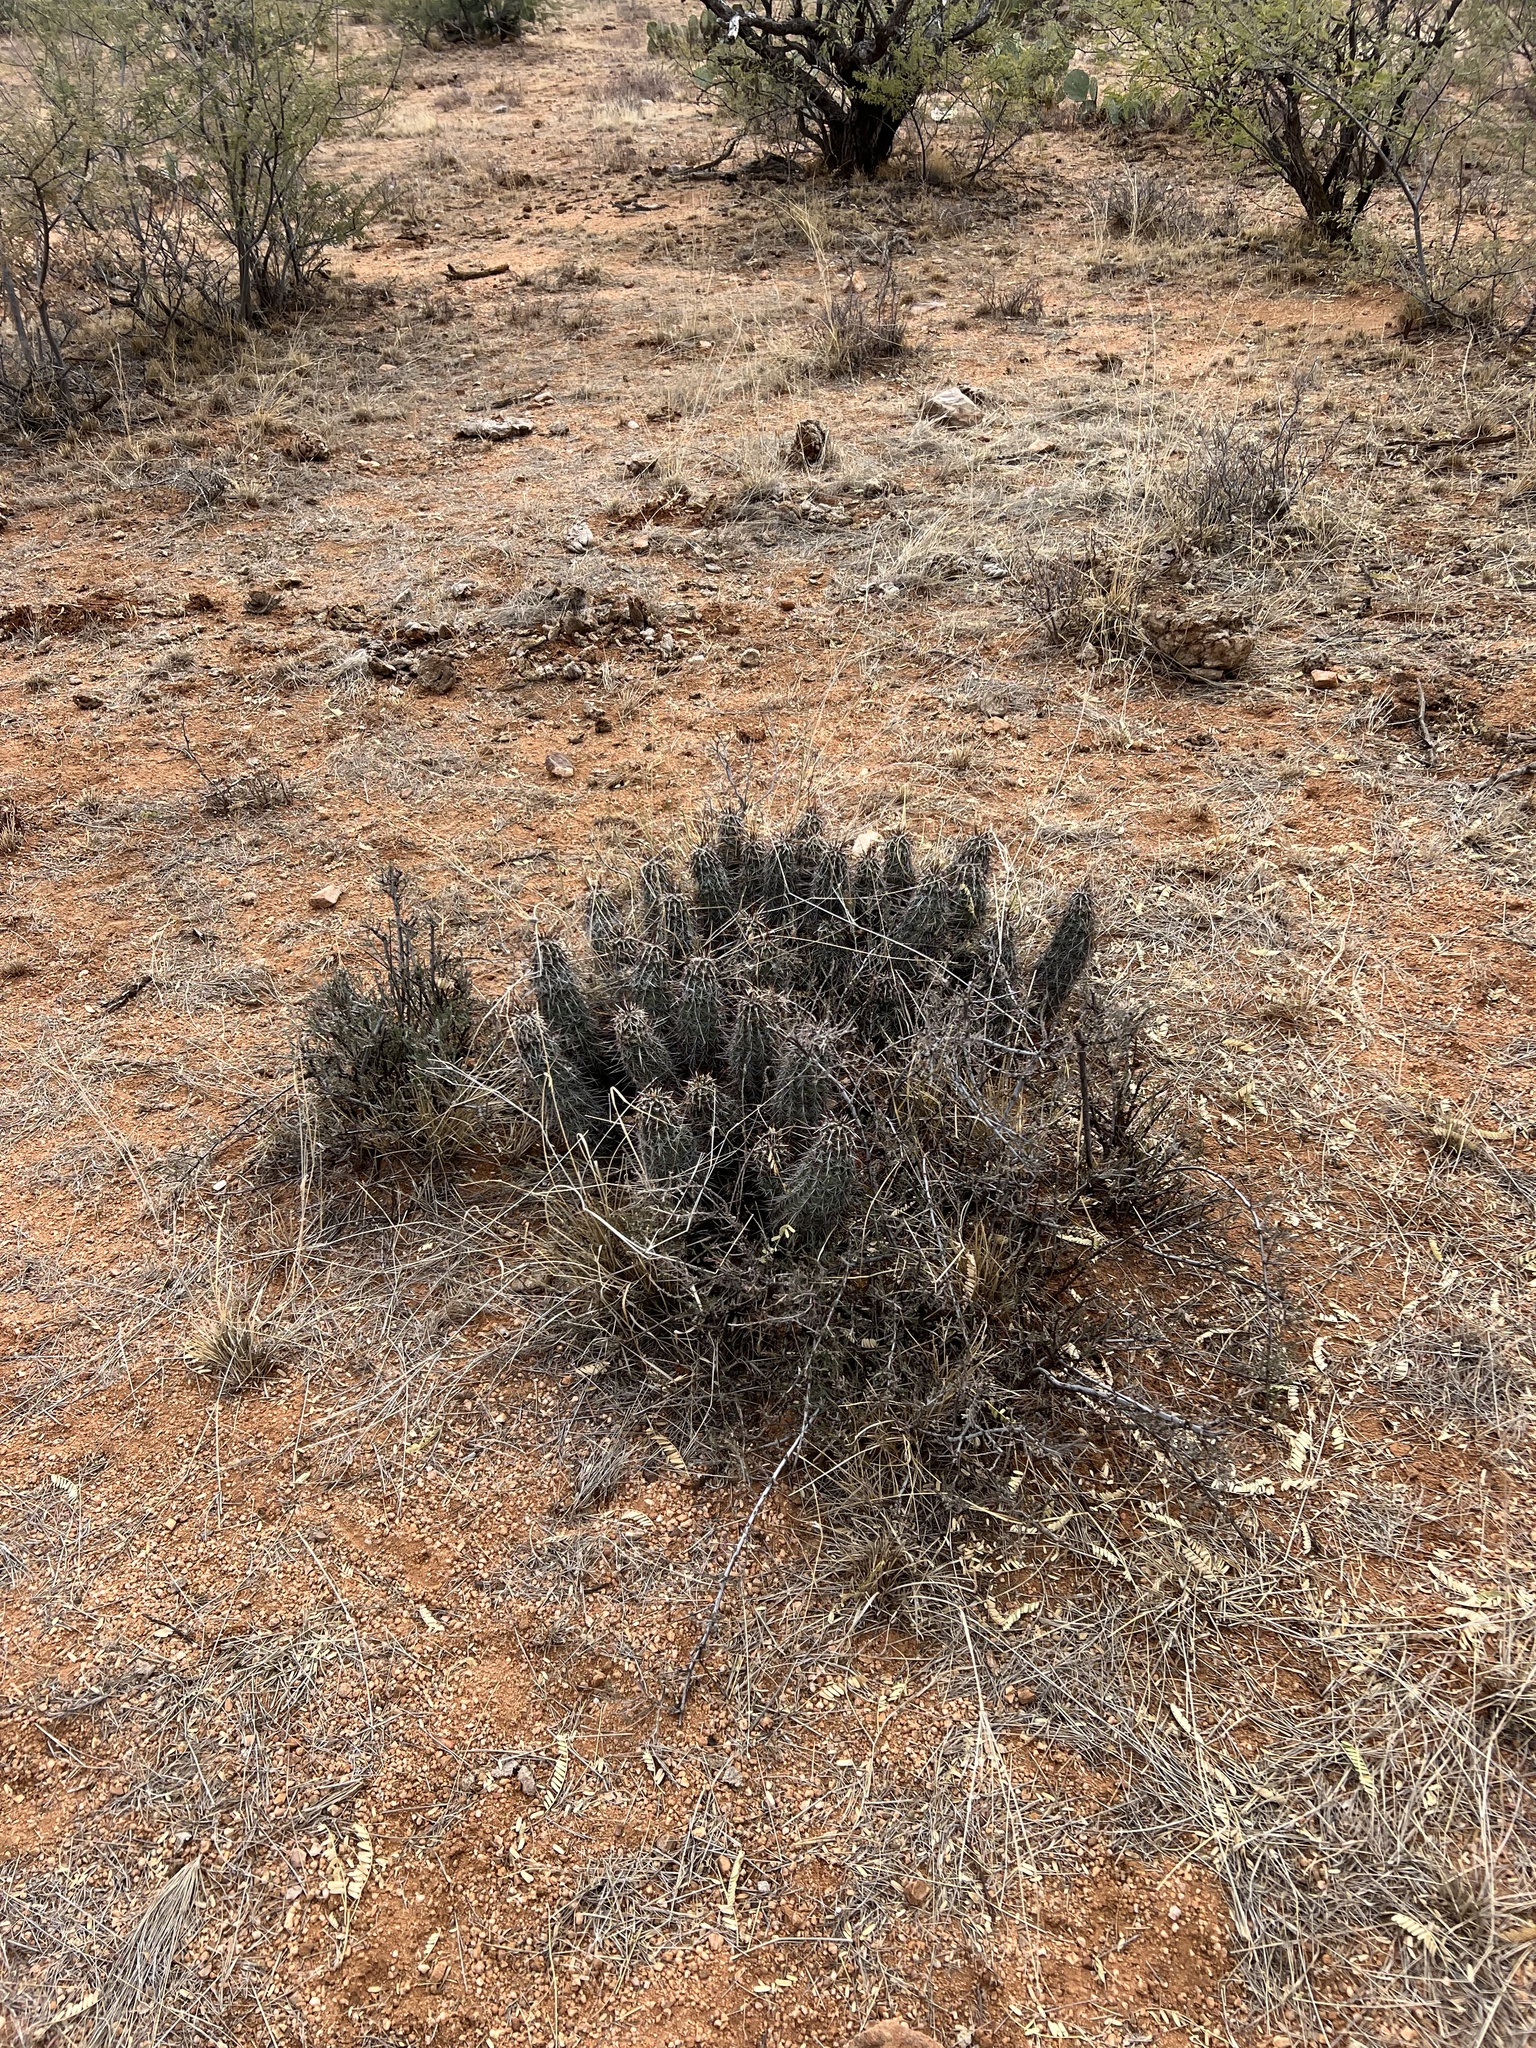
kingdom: Plantae
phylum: Tracheophyta
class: Magnoliopsida
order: Caryophyllales
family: Cactaceae
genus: Echinocereus
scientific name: Echinocereus fasciculatus
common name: Bundle hedgehog
